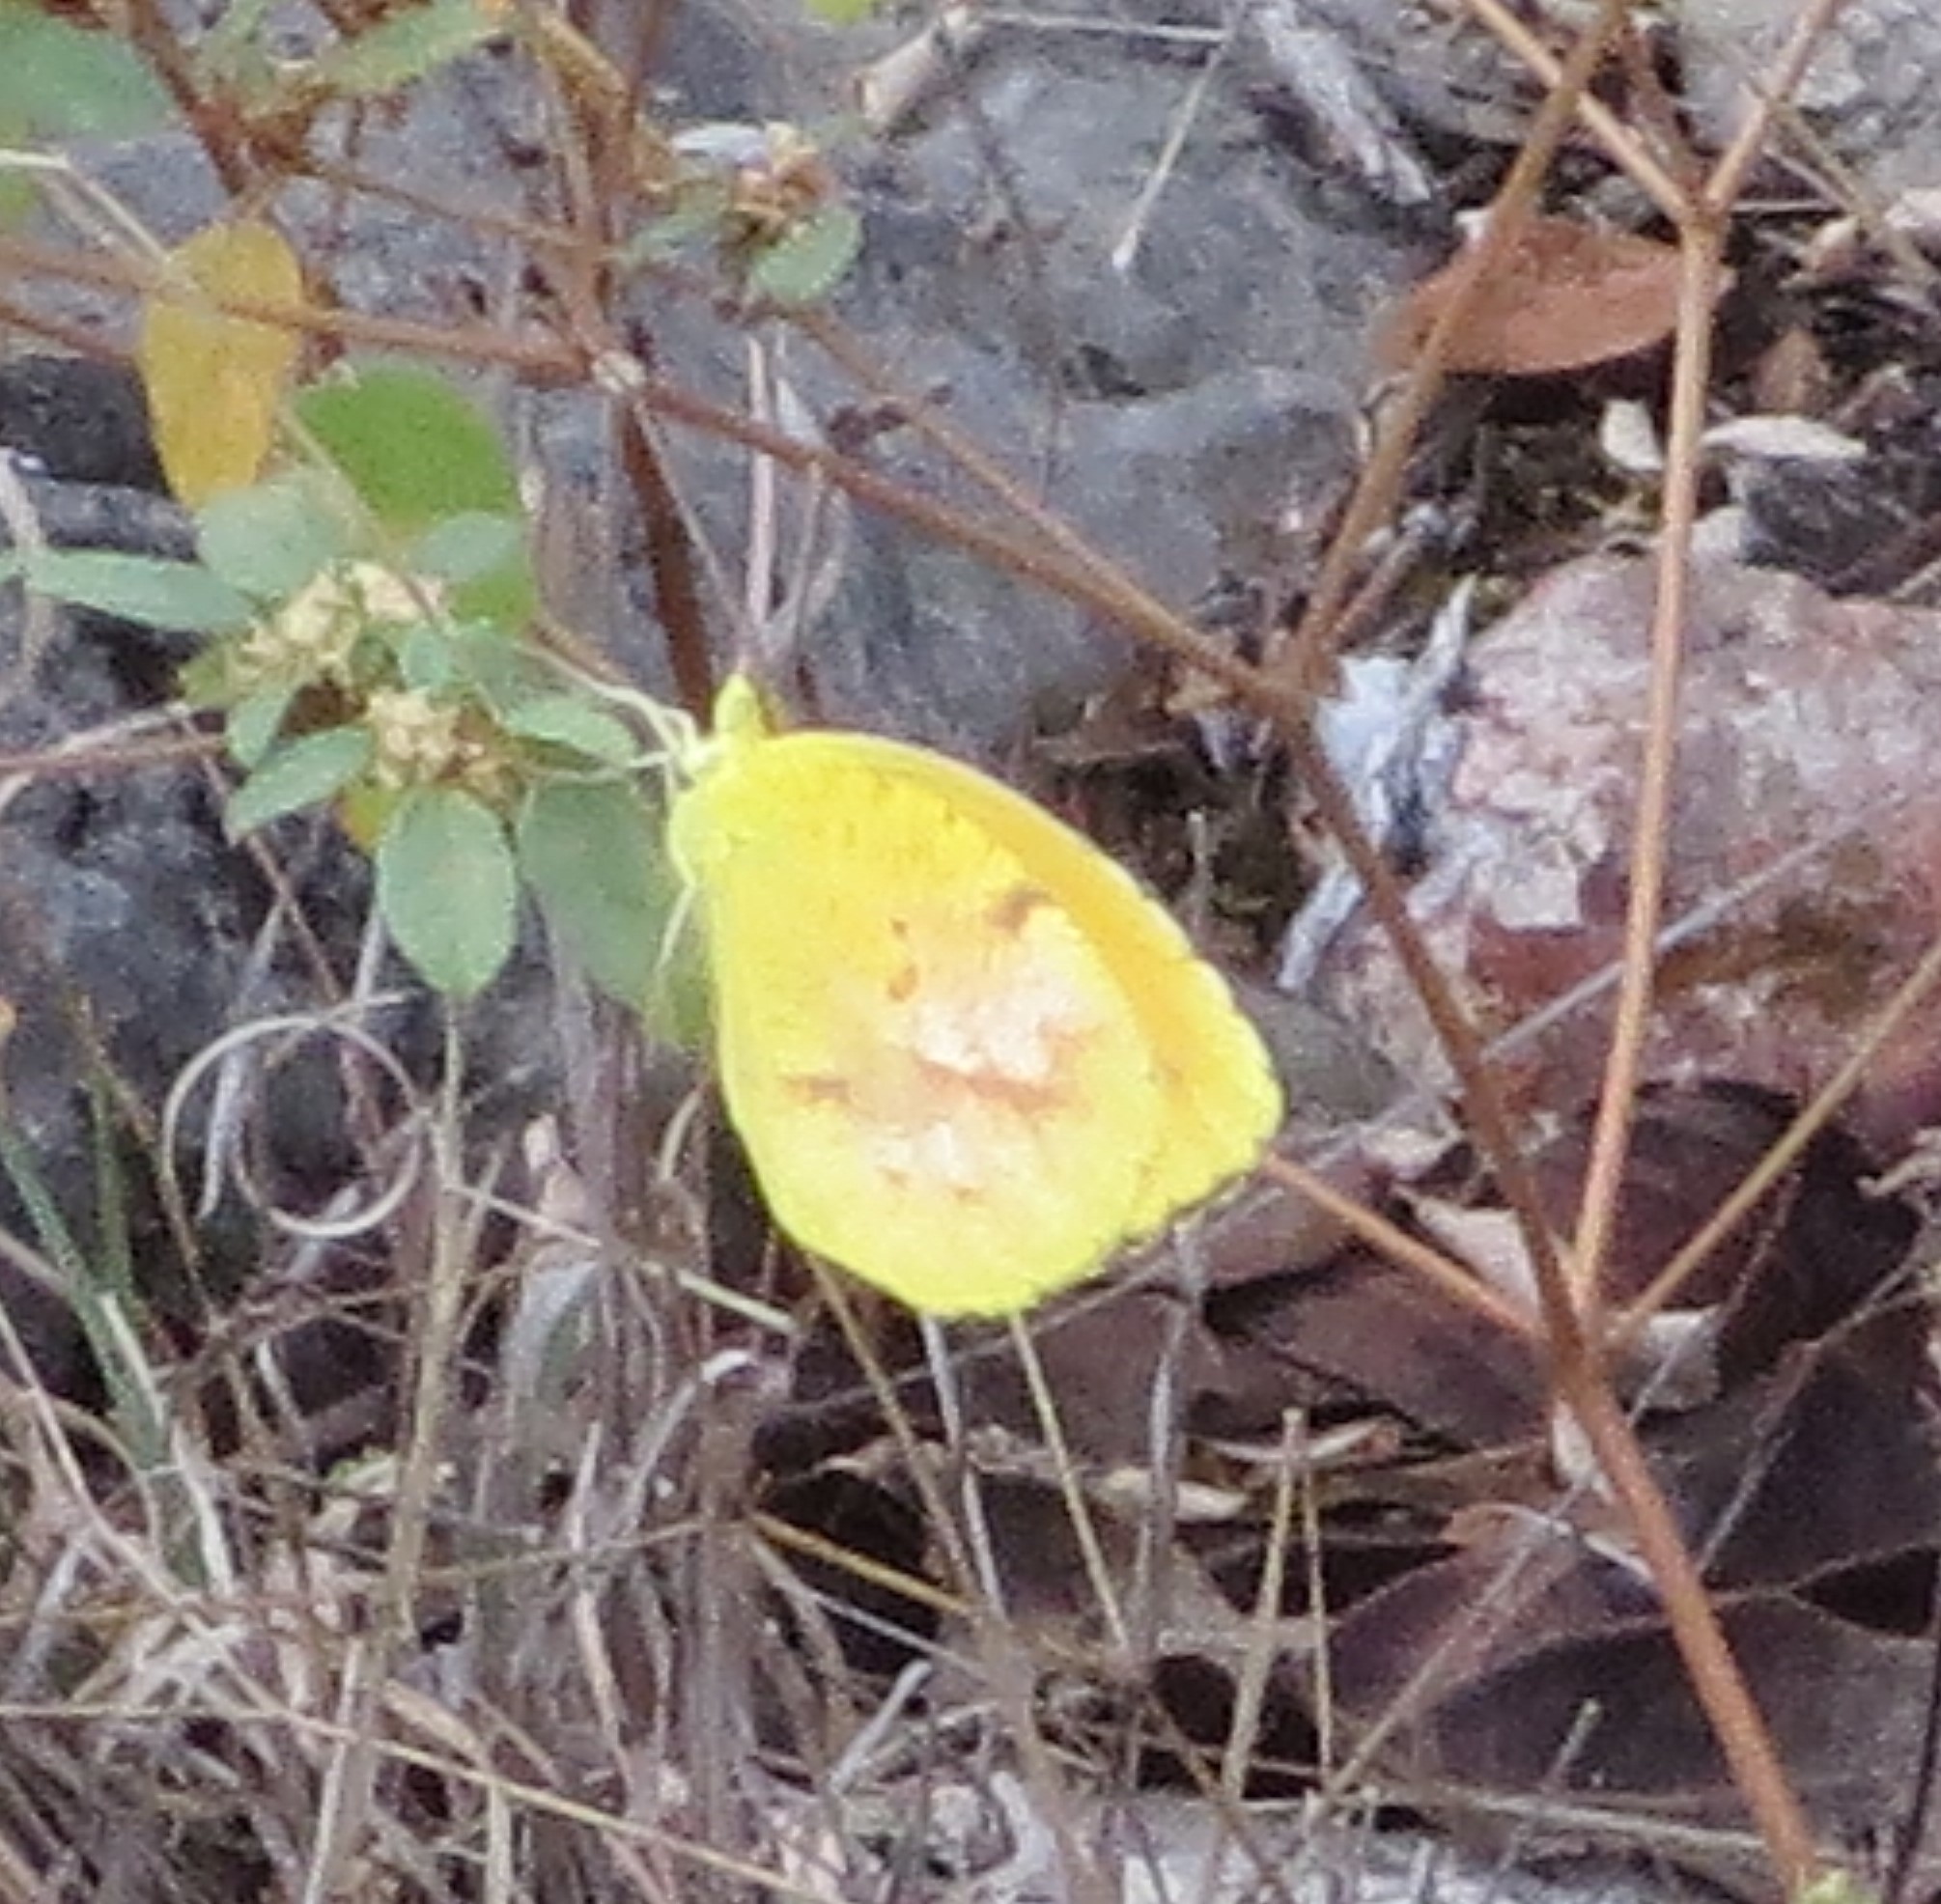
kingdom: Animalia
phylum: Arthropoda
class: Insecta
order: Lepidoptera
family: Pieridae
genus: Abaeis
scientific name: Abaeis nicippe
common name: Sleepy orange
